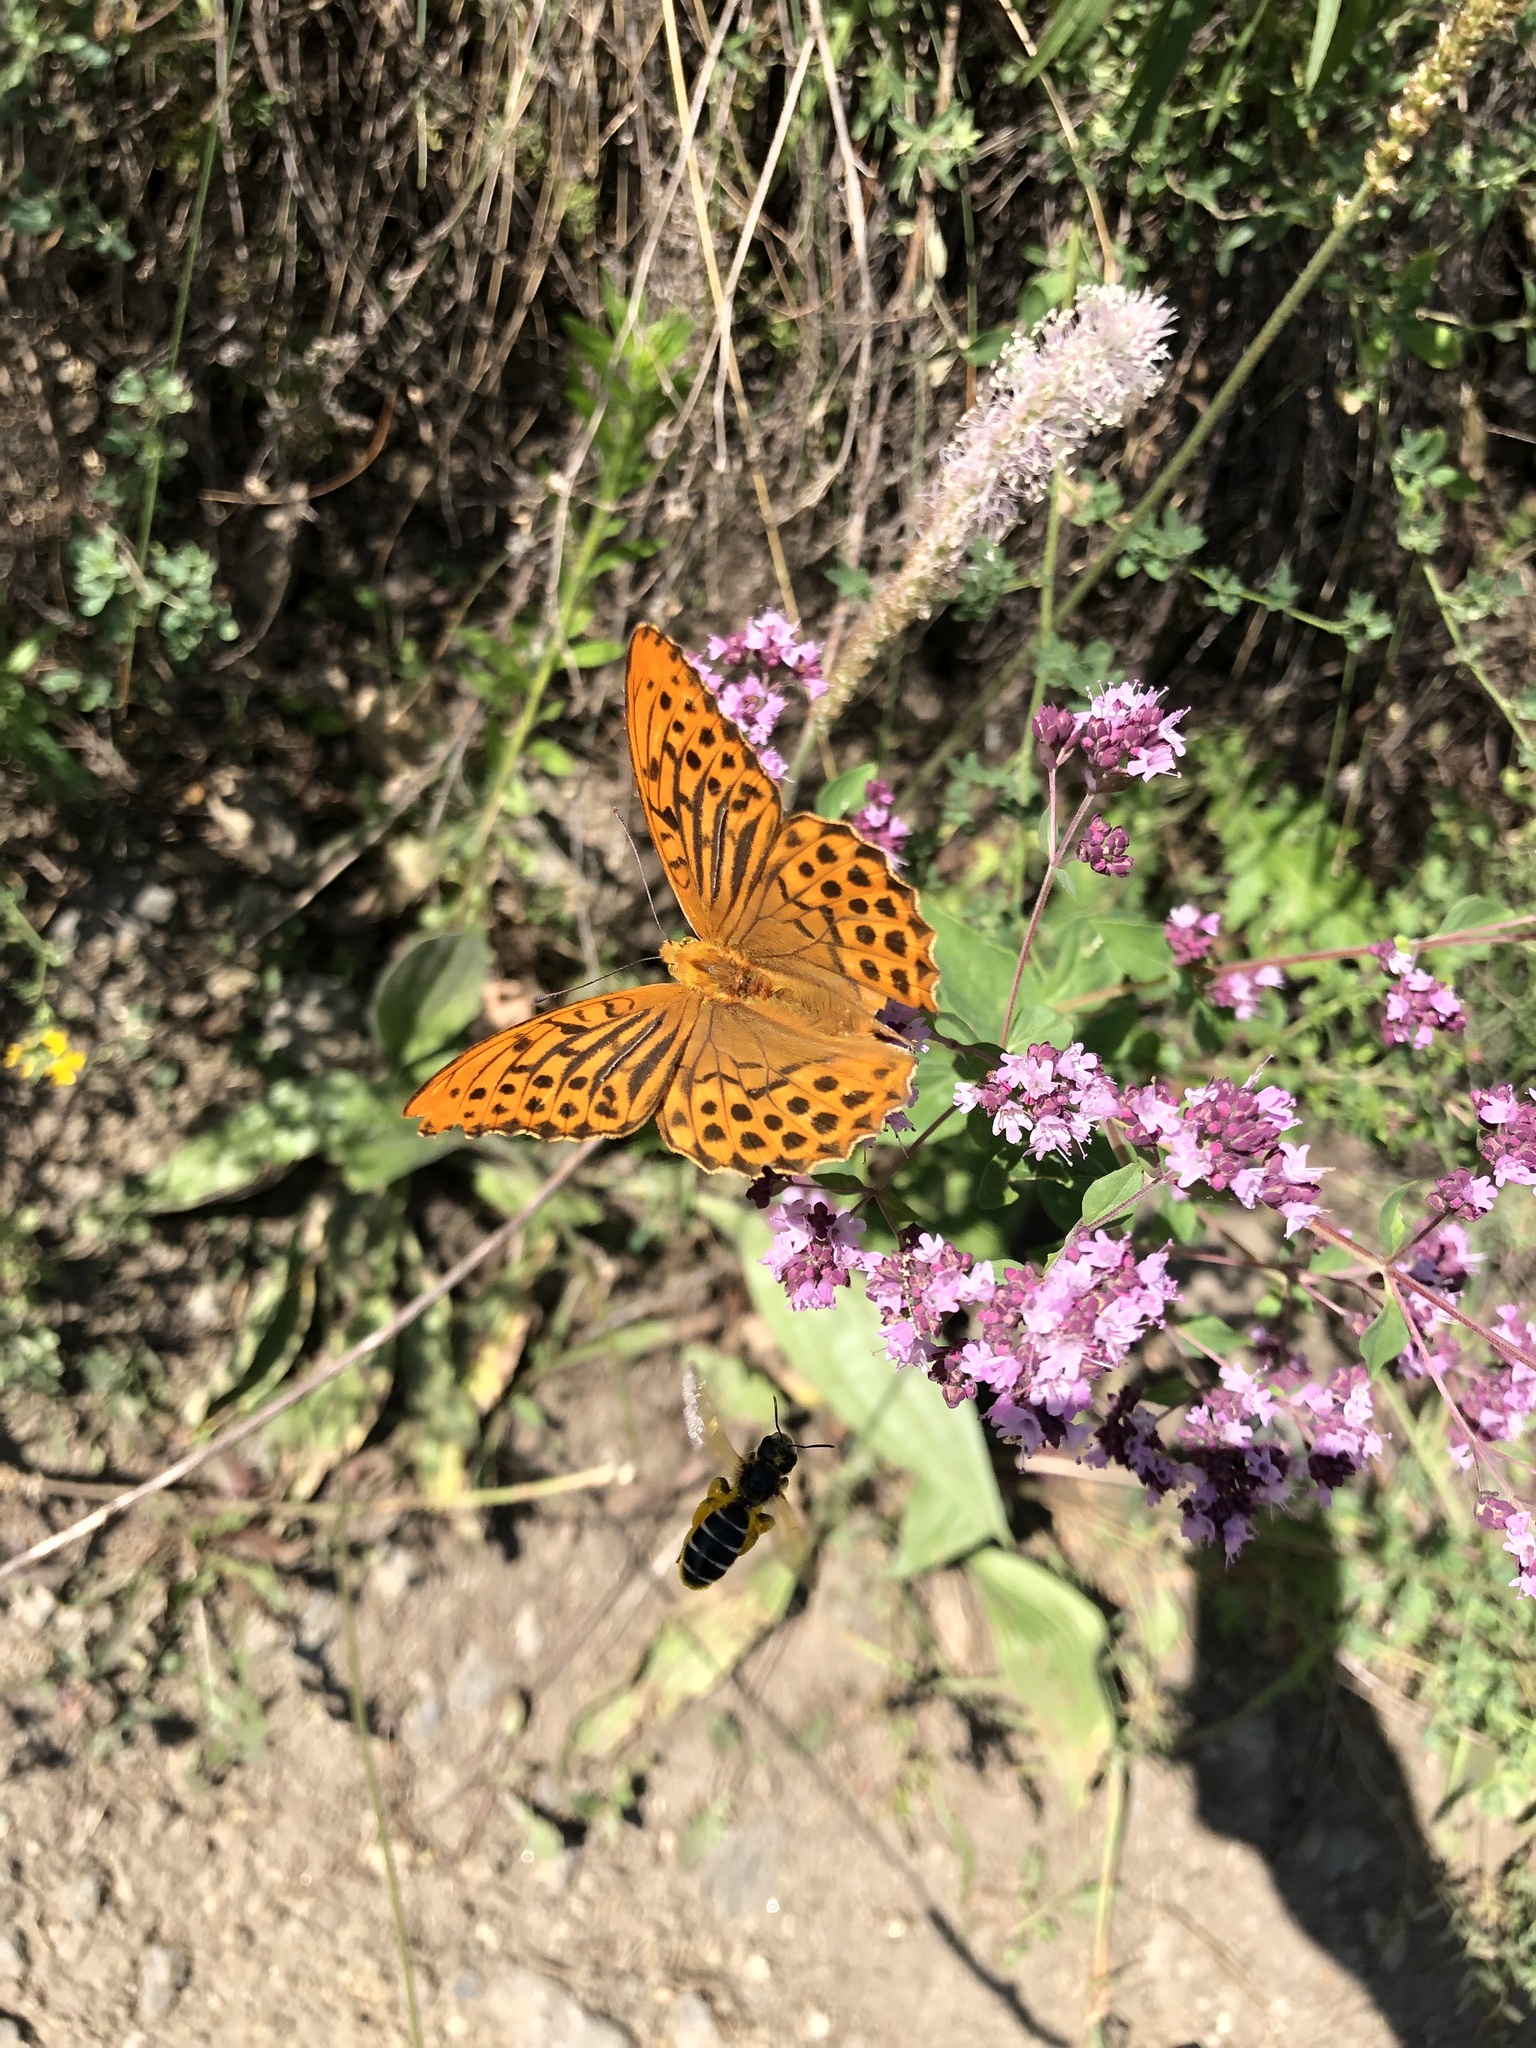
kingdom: Animalia
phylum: Arthropoda
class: Insecta
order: Lepidoptera
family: Nymphalidae
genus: Argynnis
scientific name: Argynnis paphia
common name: Silver-washed fritillary
